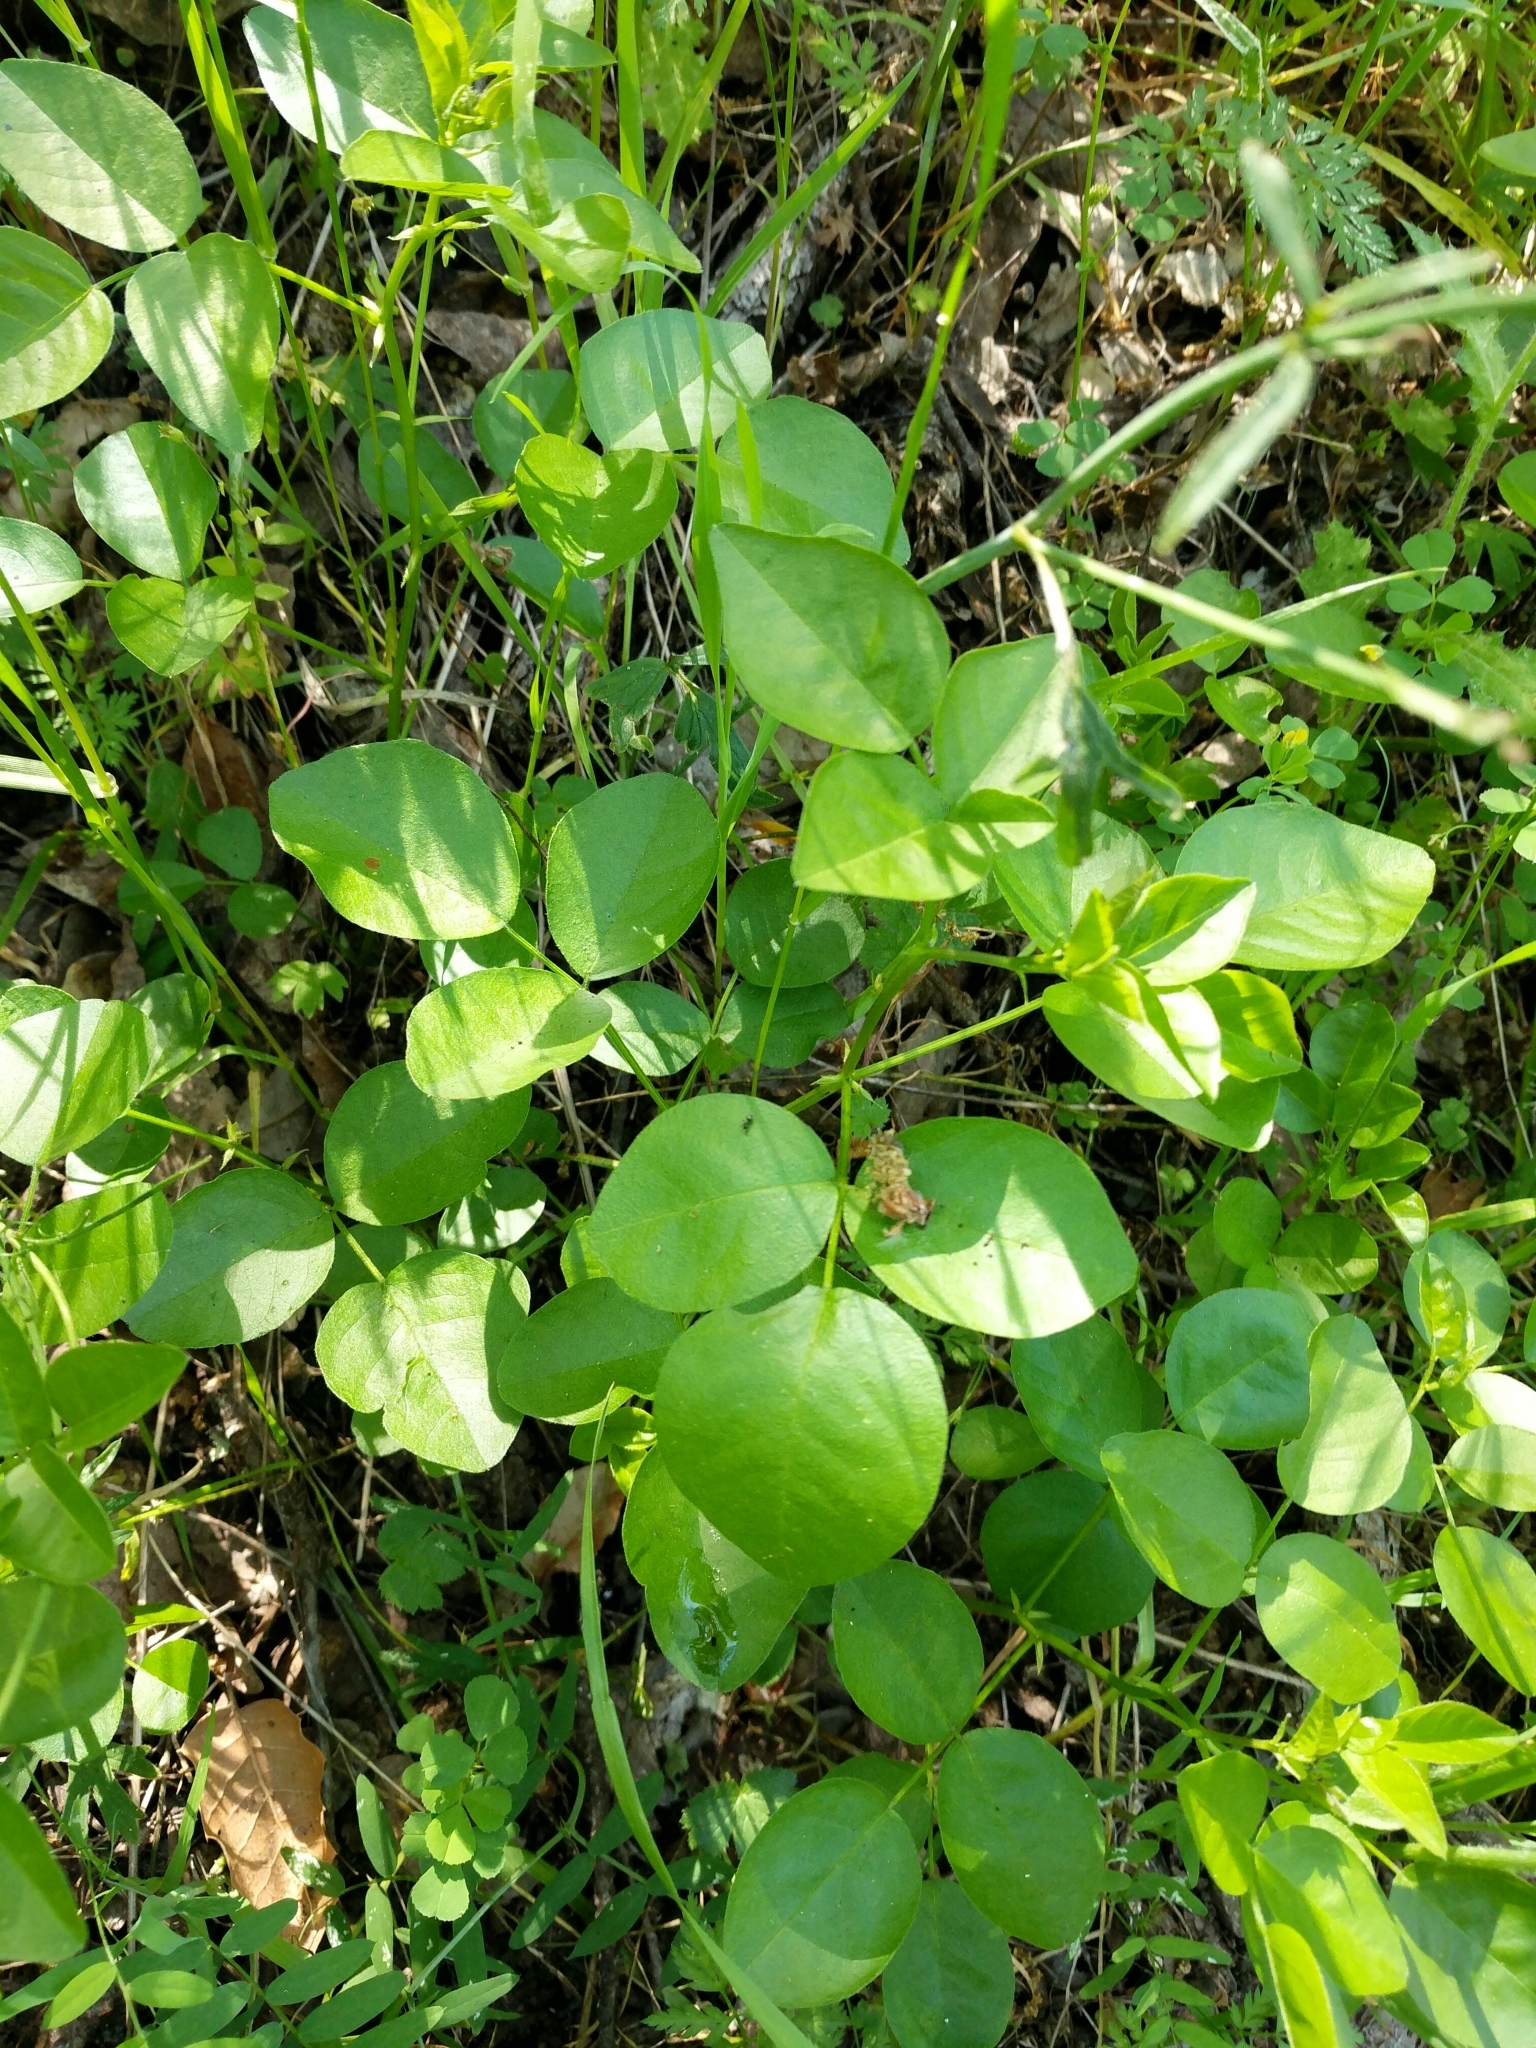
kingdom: Plantae
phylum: Tracheophyta
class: Magnoliopsida
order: Fabales
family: Fabaceae
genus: Rupertia
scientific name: Rupertia physodes
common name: California-tea
